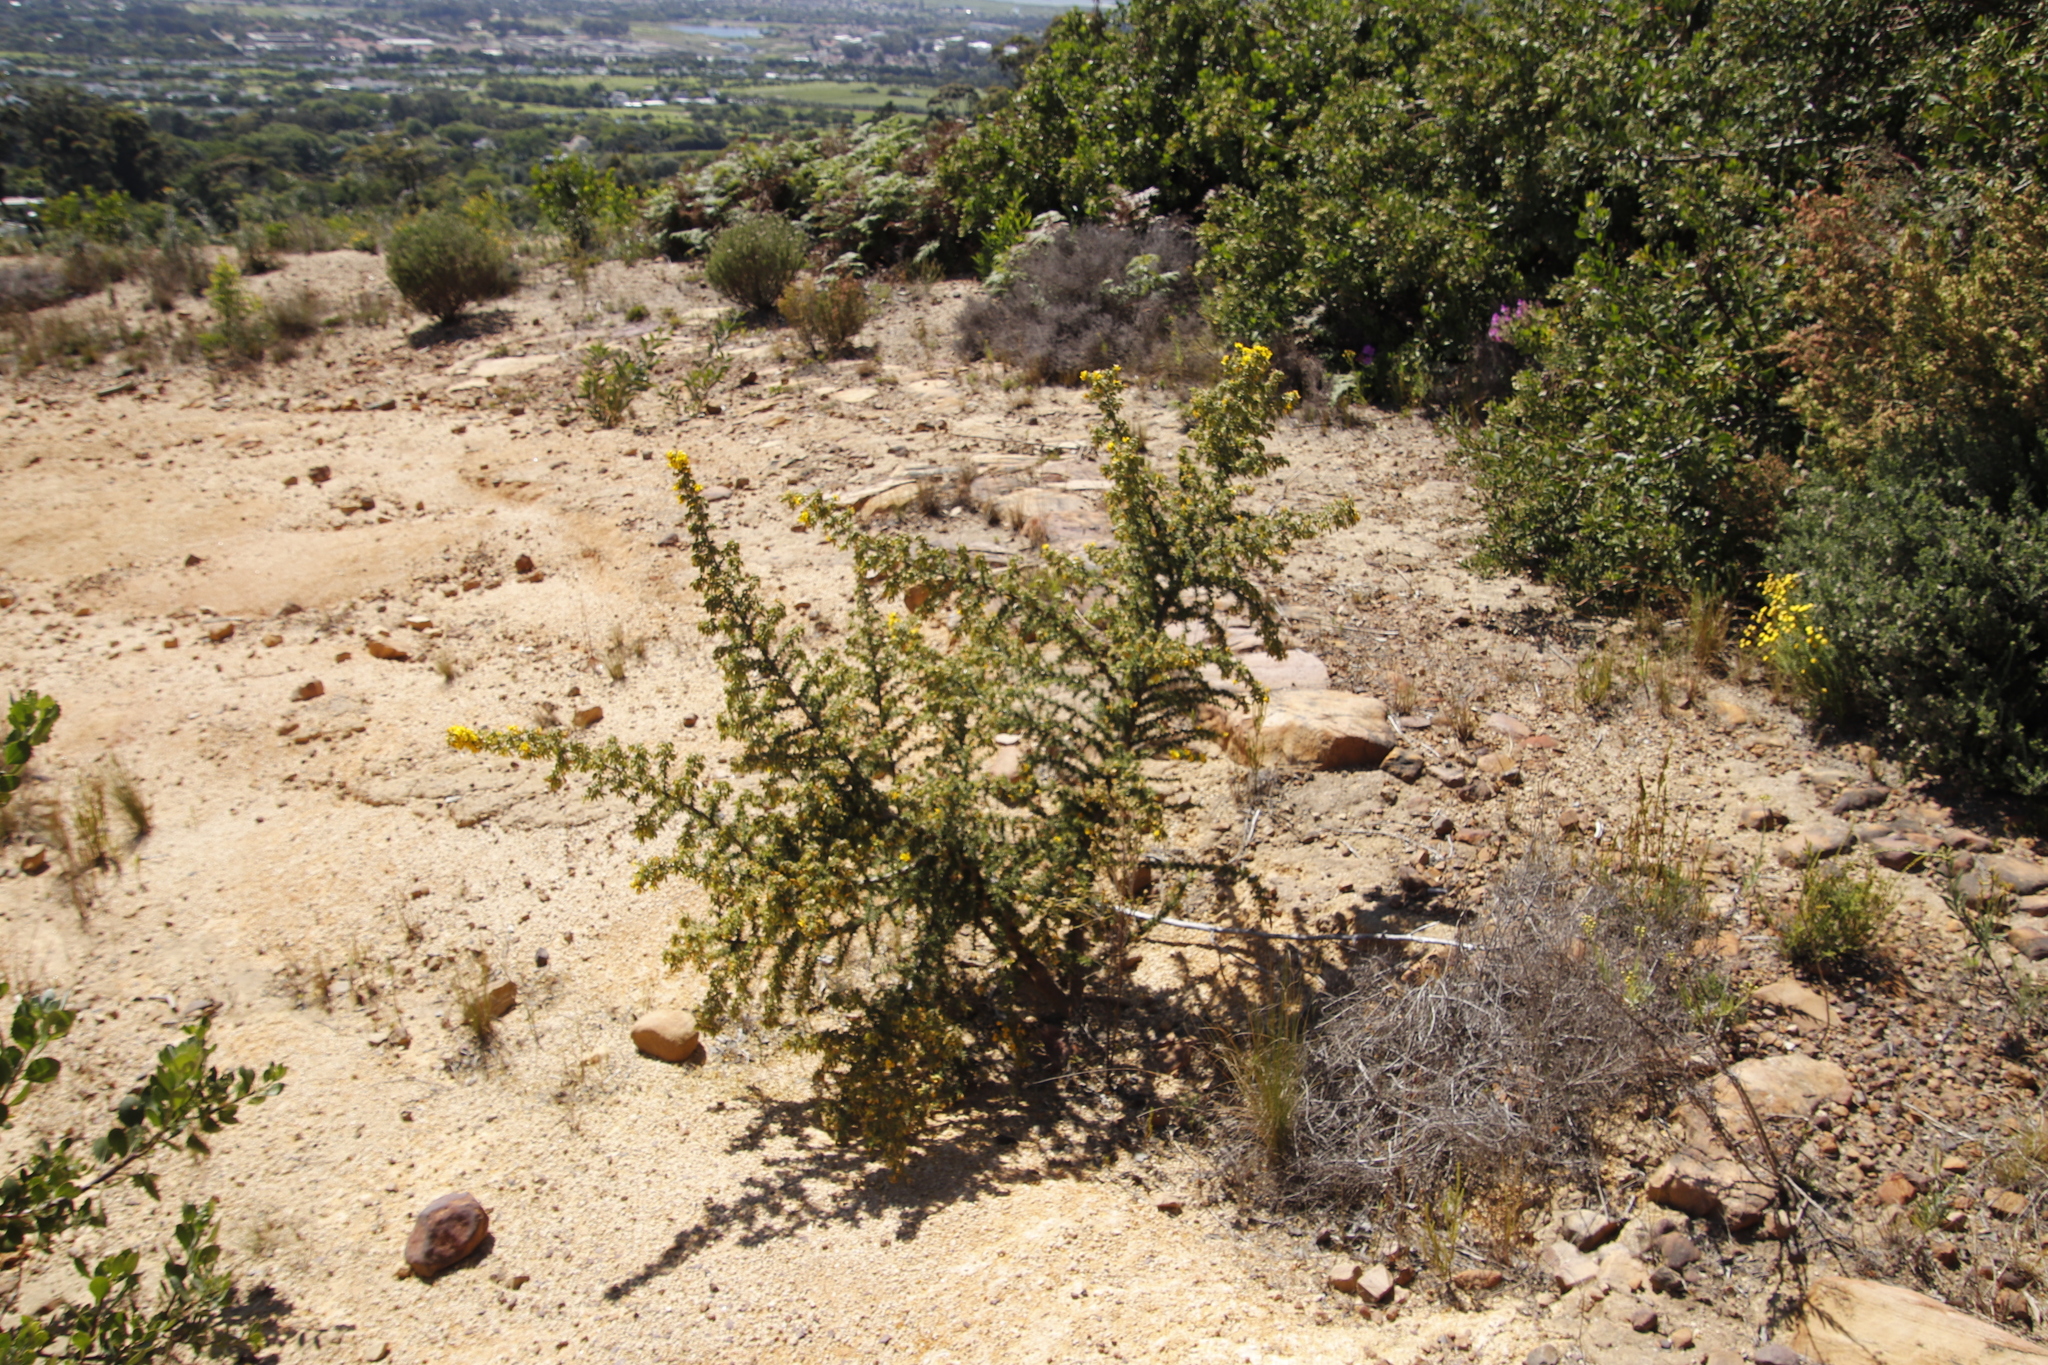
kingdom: Plantae
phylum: Tracheophyta
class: Magnoliopsida
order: Fabales
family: Fabaceae
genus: Aspalathus
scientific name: Aspalathus astroites
